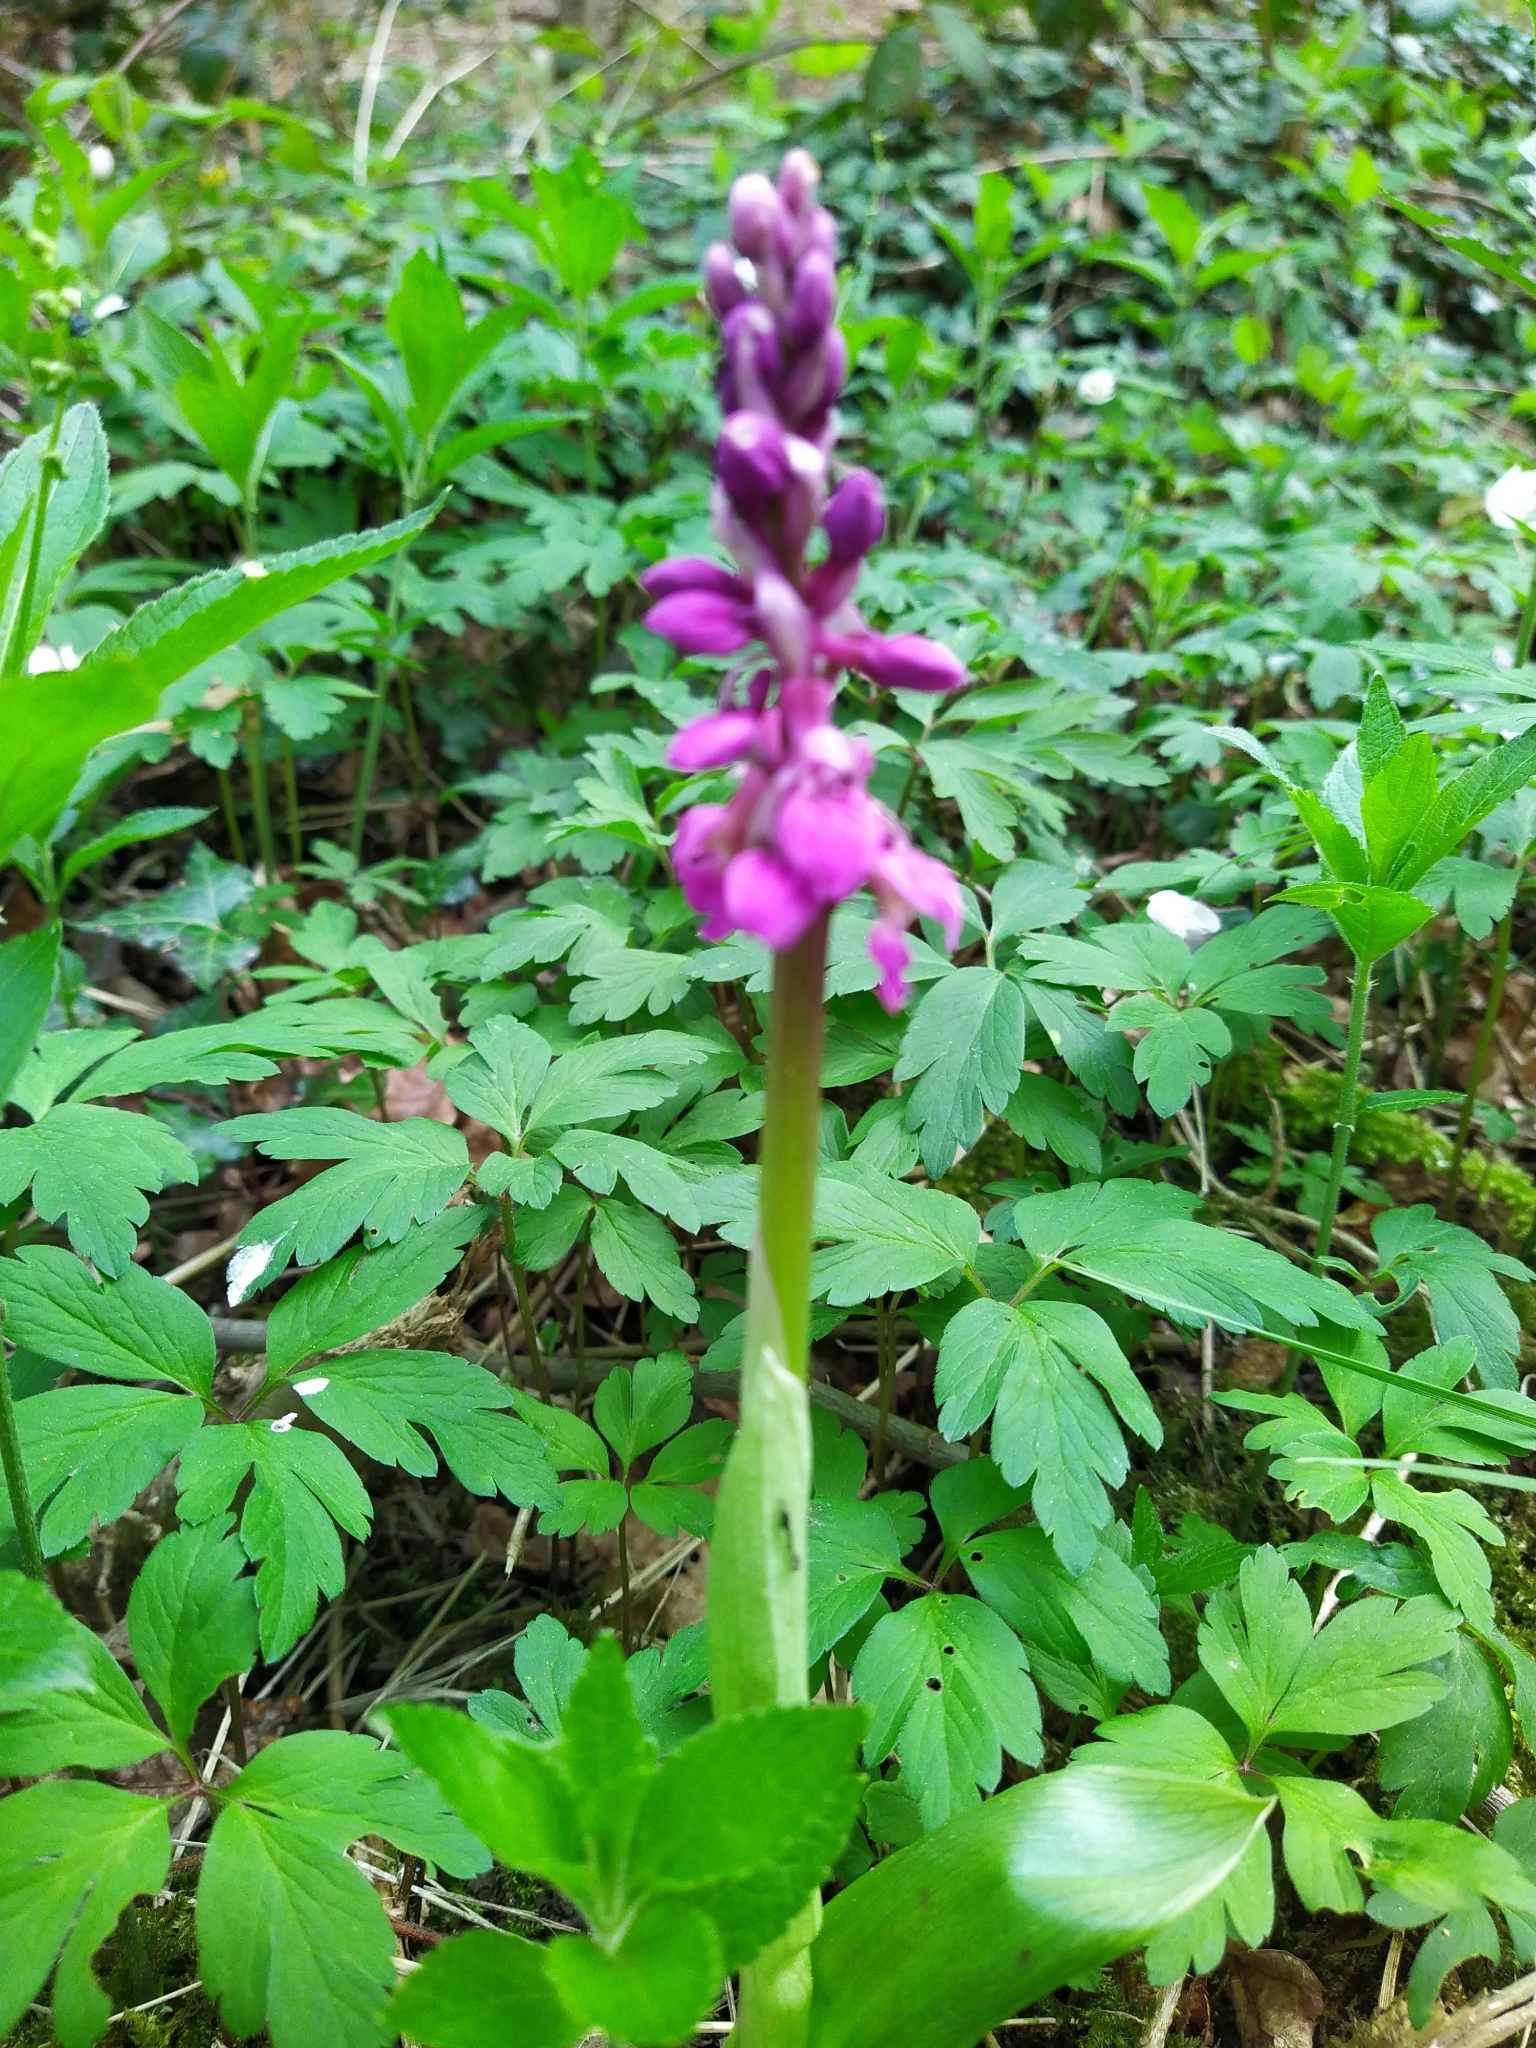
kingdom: Plantae
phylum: Tracheophyta
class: Liliopsida
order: Asparagales
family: Orchidaceae
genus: Orchis
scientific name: Orchis mascula
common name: Early-purple orchid
